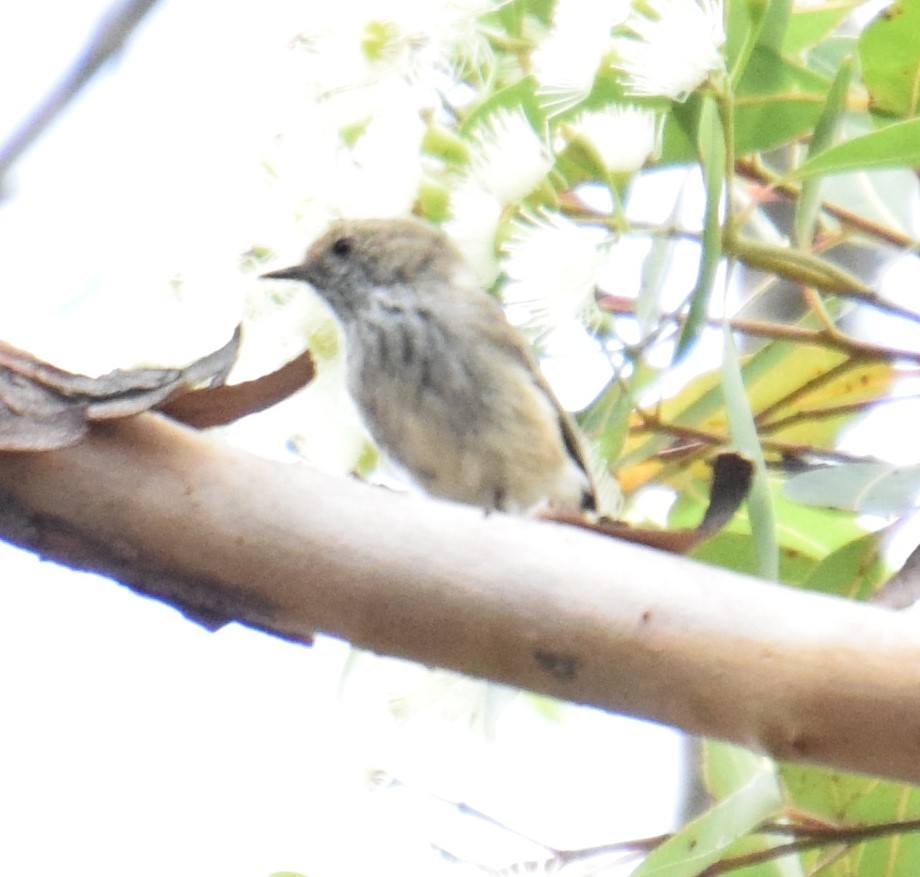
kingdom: Animalia
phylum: Chordata
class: Aves
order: Passeriformes
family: Acanthizidae
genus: Acanthiza
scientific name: Acanthiza pusilla
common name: Brown thornbill
